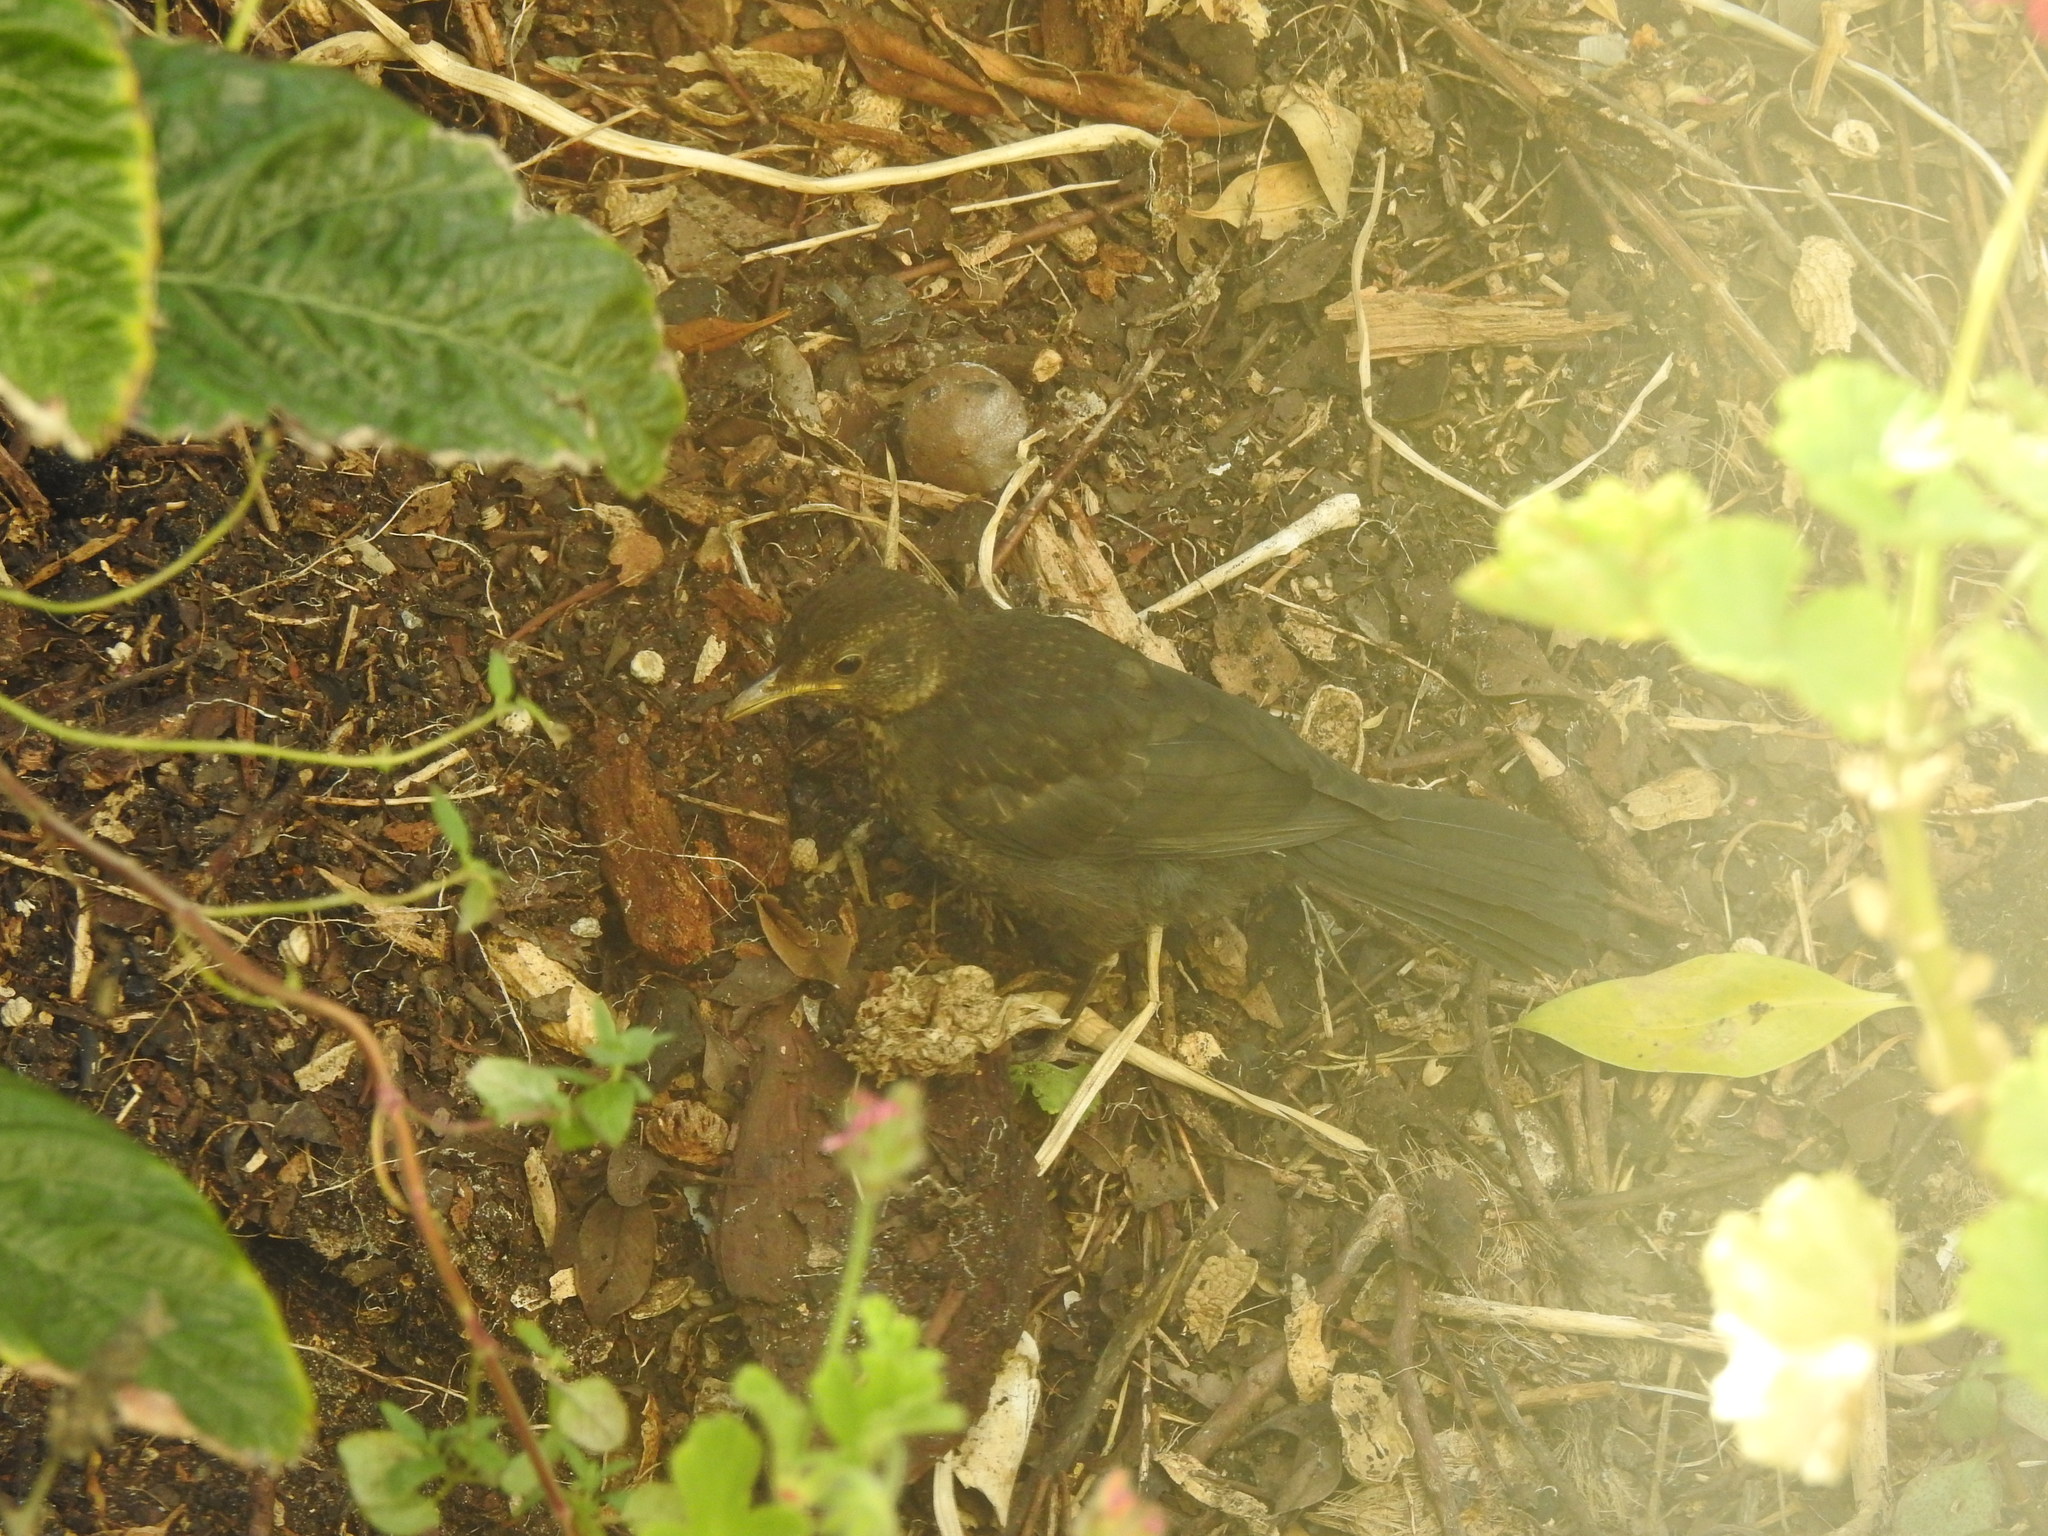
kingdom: Animalia
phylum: Chordata
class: Aves
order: Passeriformes
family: Turdidae
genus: Turdus
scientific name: Turdus merula
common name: Common blackbird
